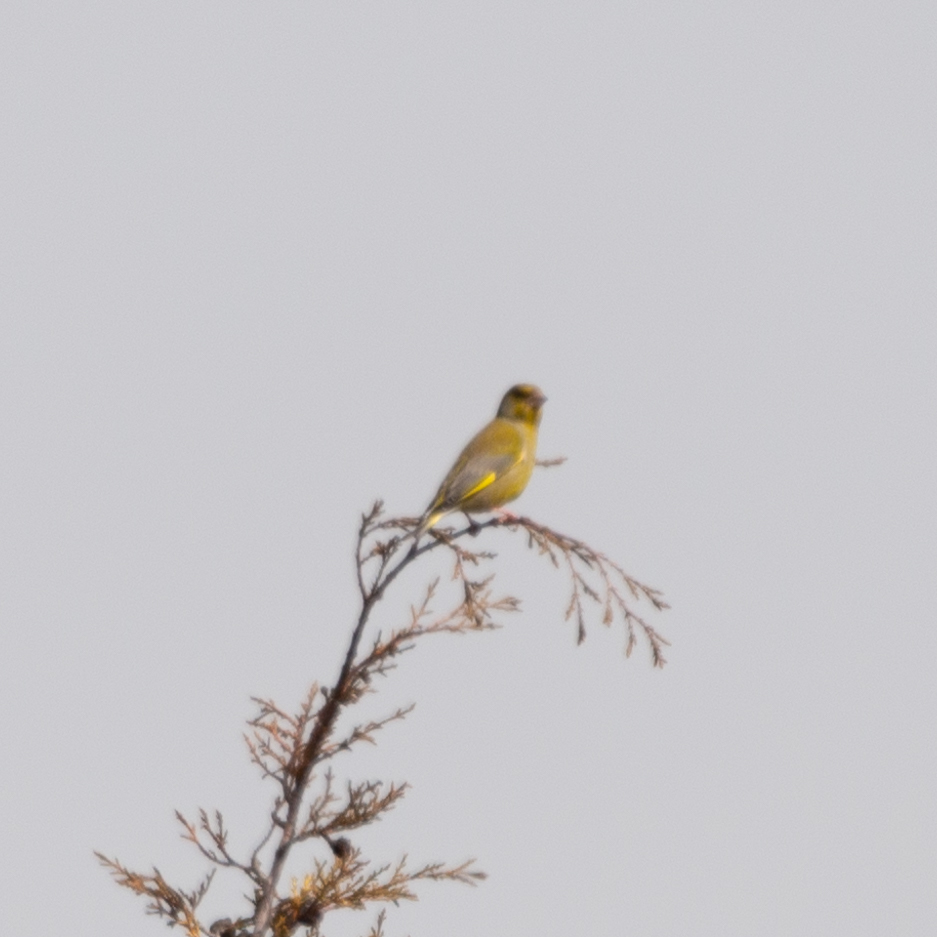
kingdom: Plantae
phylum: Tracheophyta
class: Liliopsida
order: Poales
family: Poaceae
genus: Chloris
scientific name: Chloris chloris
